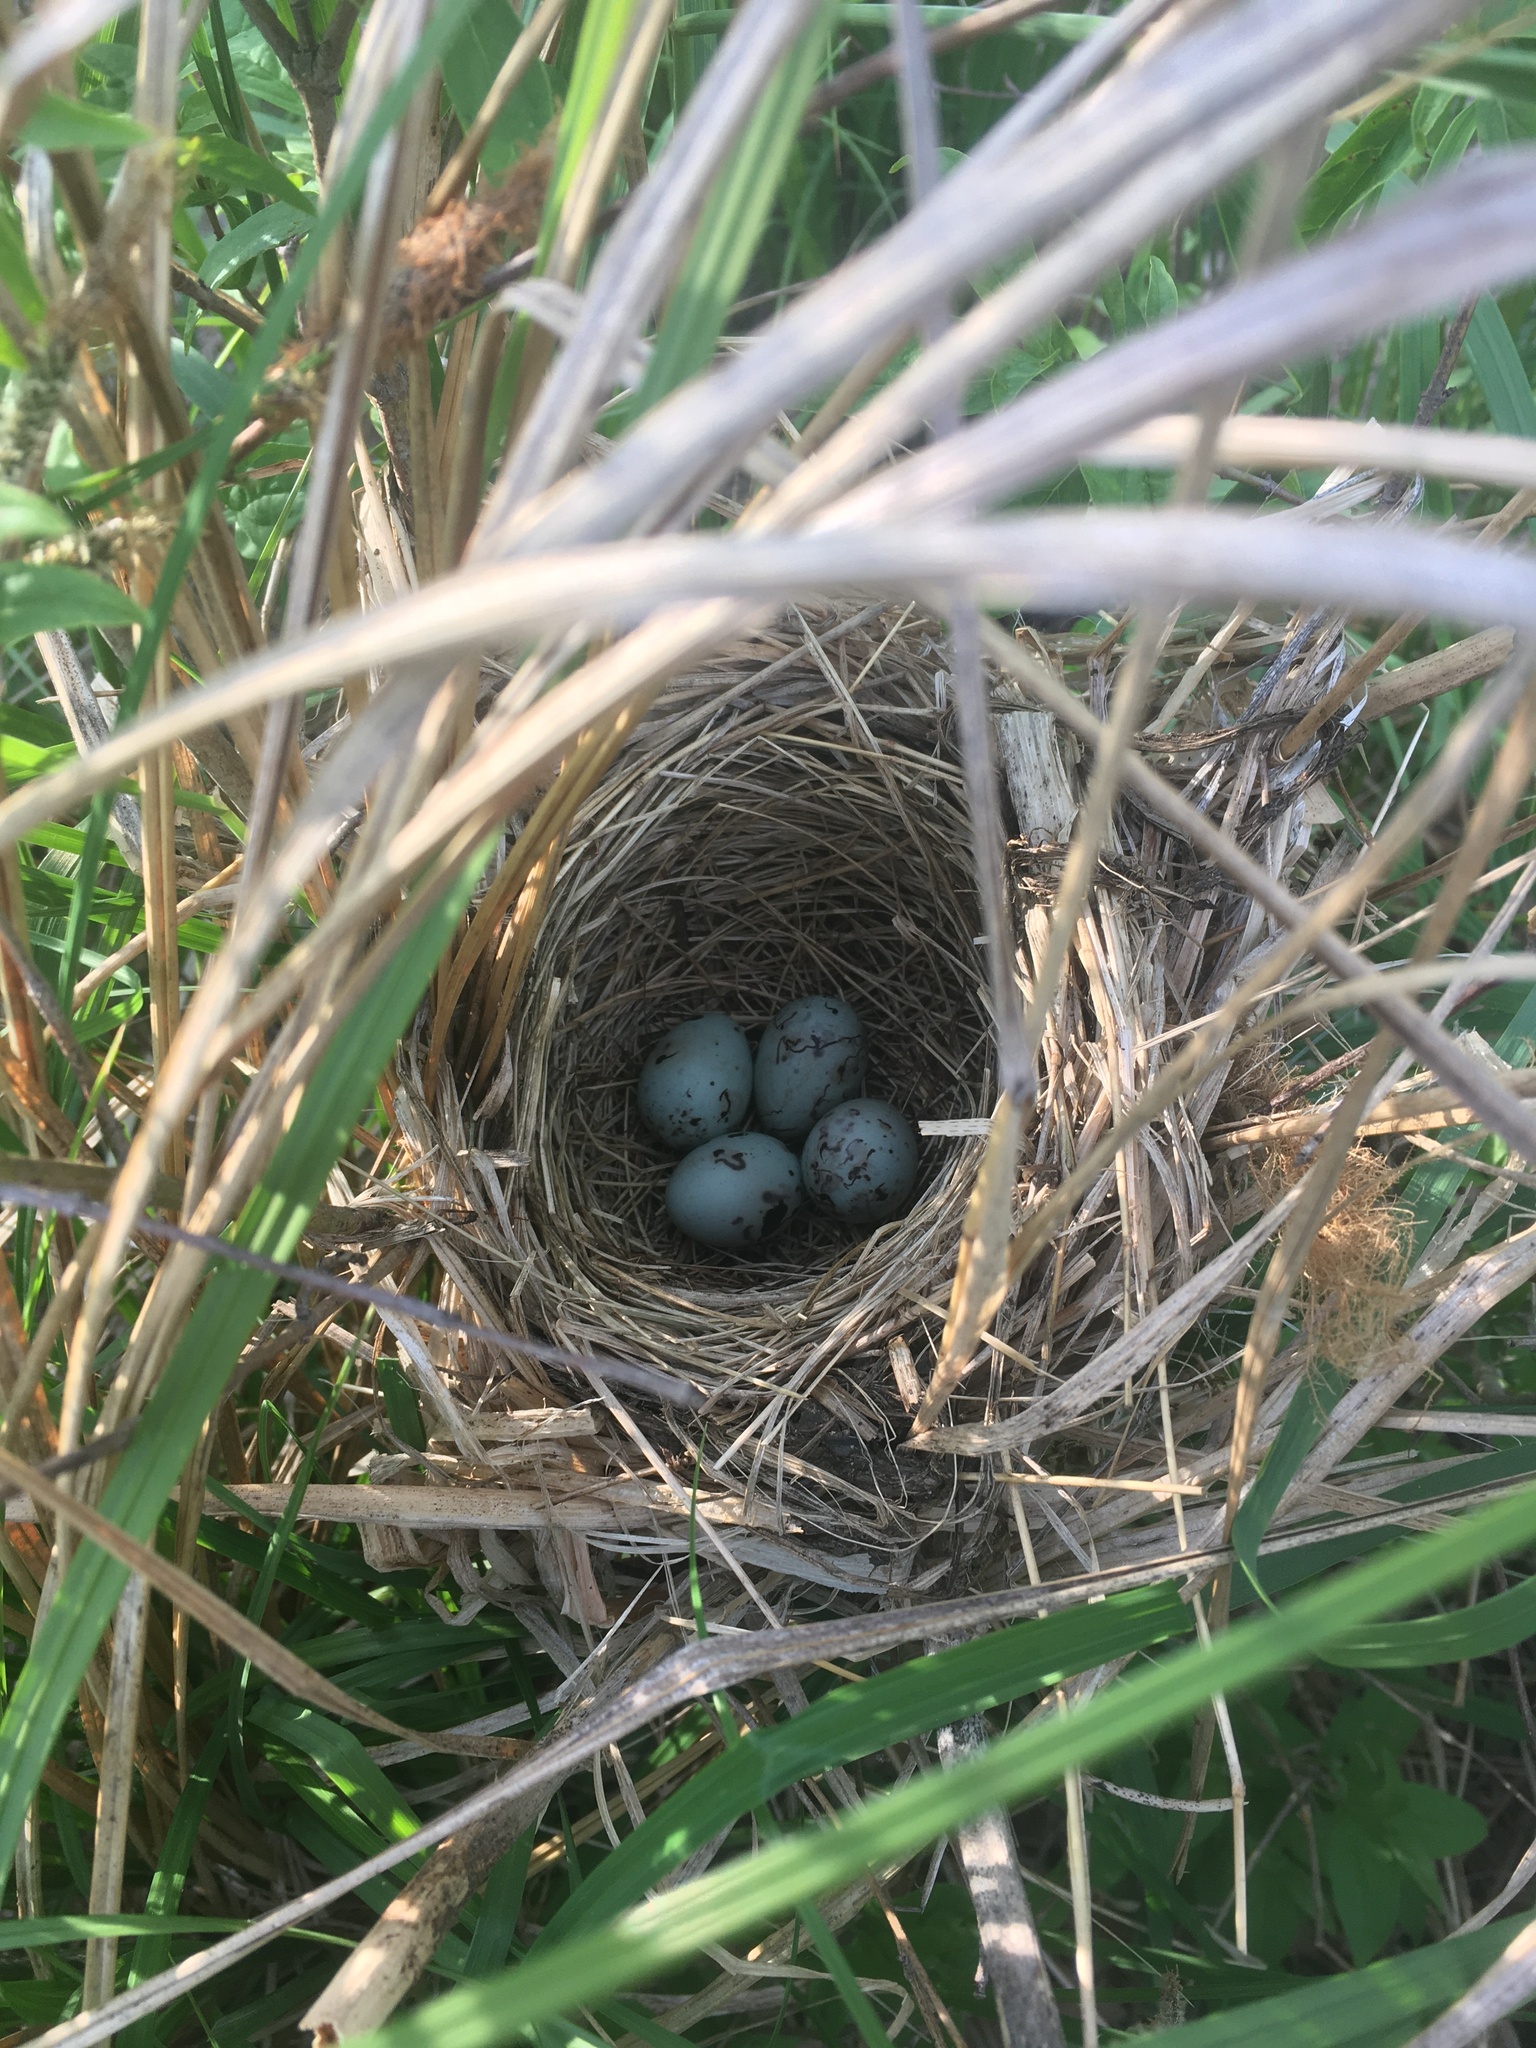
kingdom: Animalia
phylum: Chordata
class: Aves
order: Passeriformes
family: Icteridae
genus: Agelaius
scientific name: Agelaius phoeniceus
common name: Red-winged blackbird
